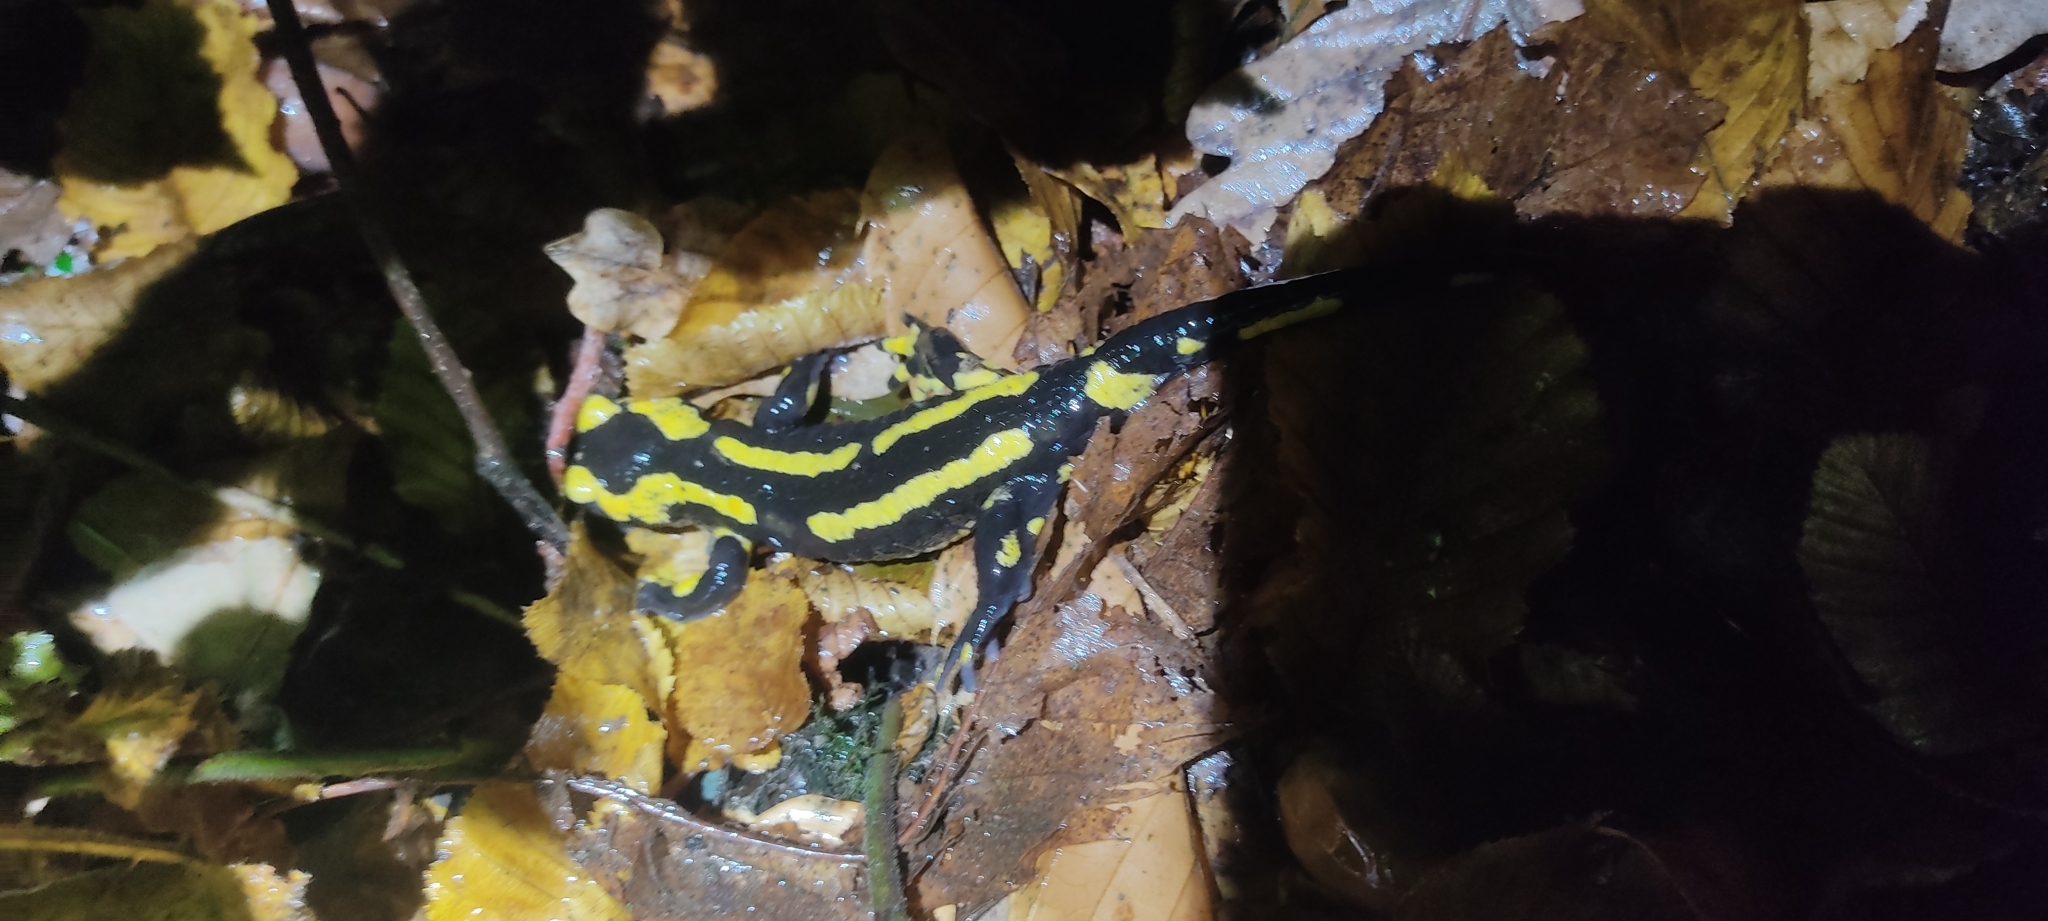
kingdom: Animalia
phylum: Chordata
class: Amphibia
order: Caudata
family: Salamandridae
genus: Salamandra
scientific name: Salamandra salamandra
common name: Fire salamander
